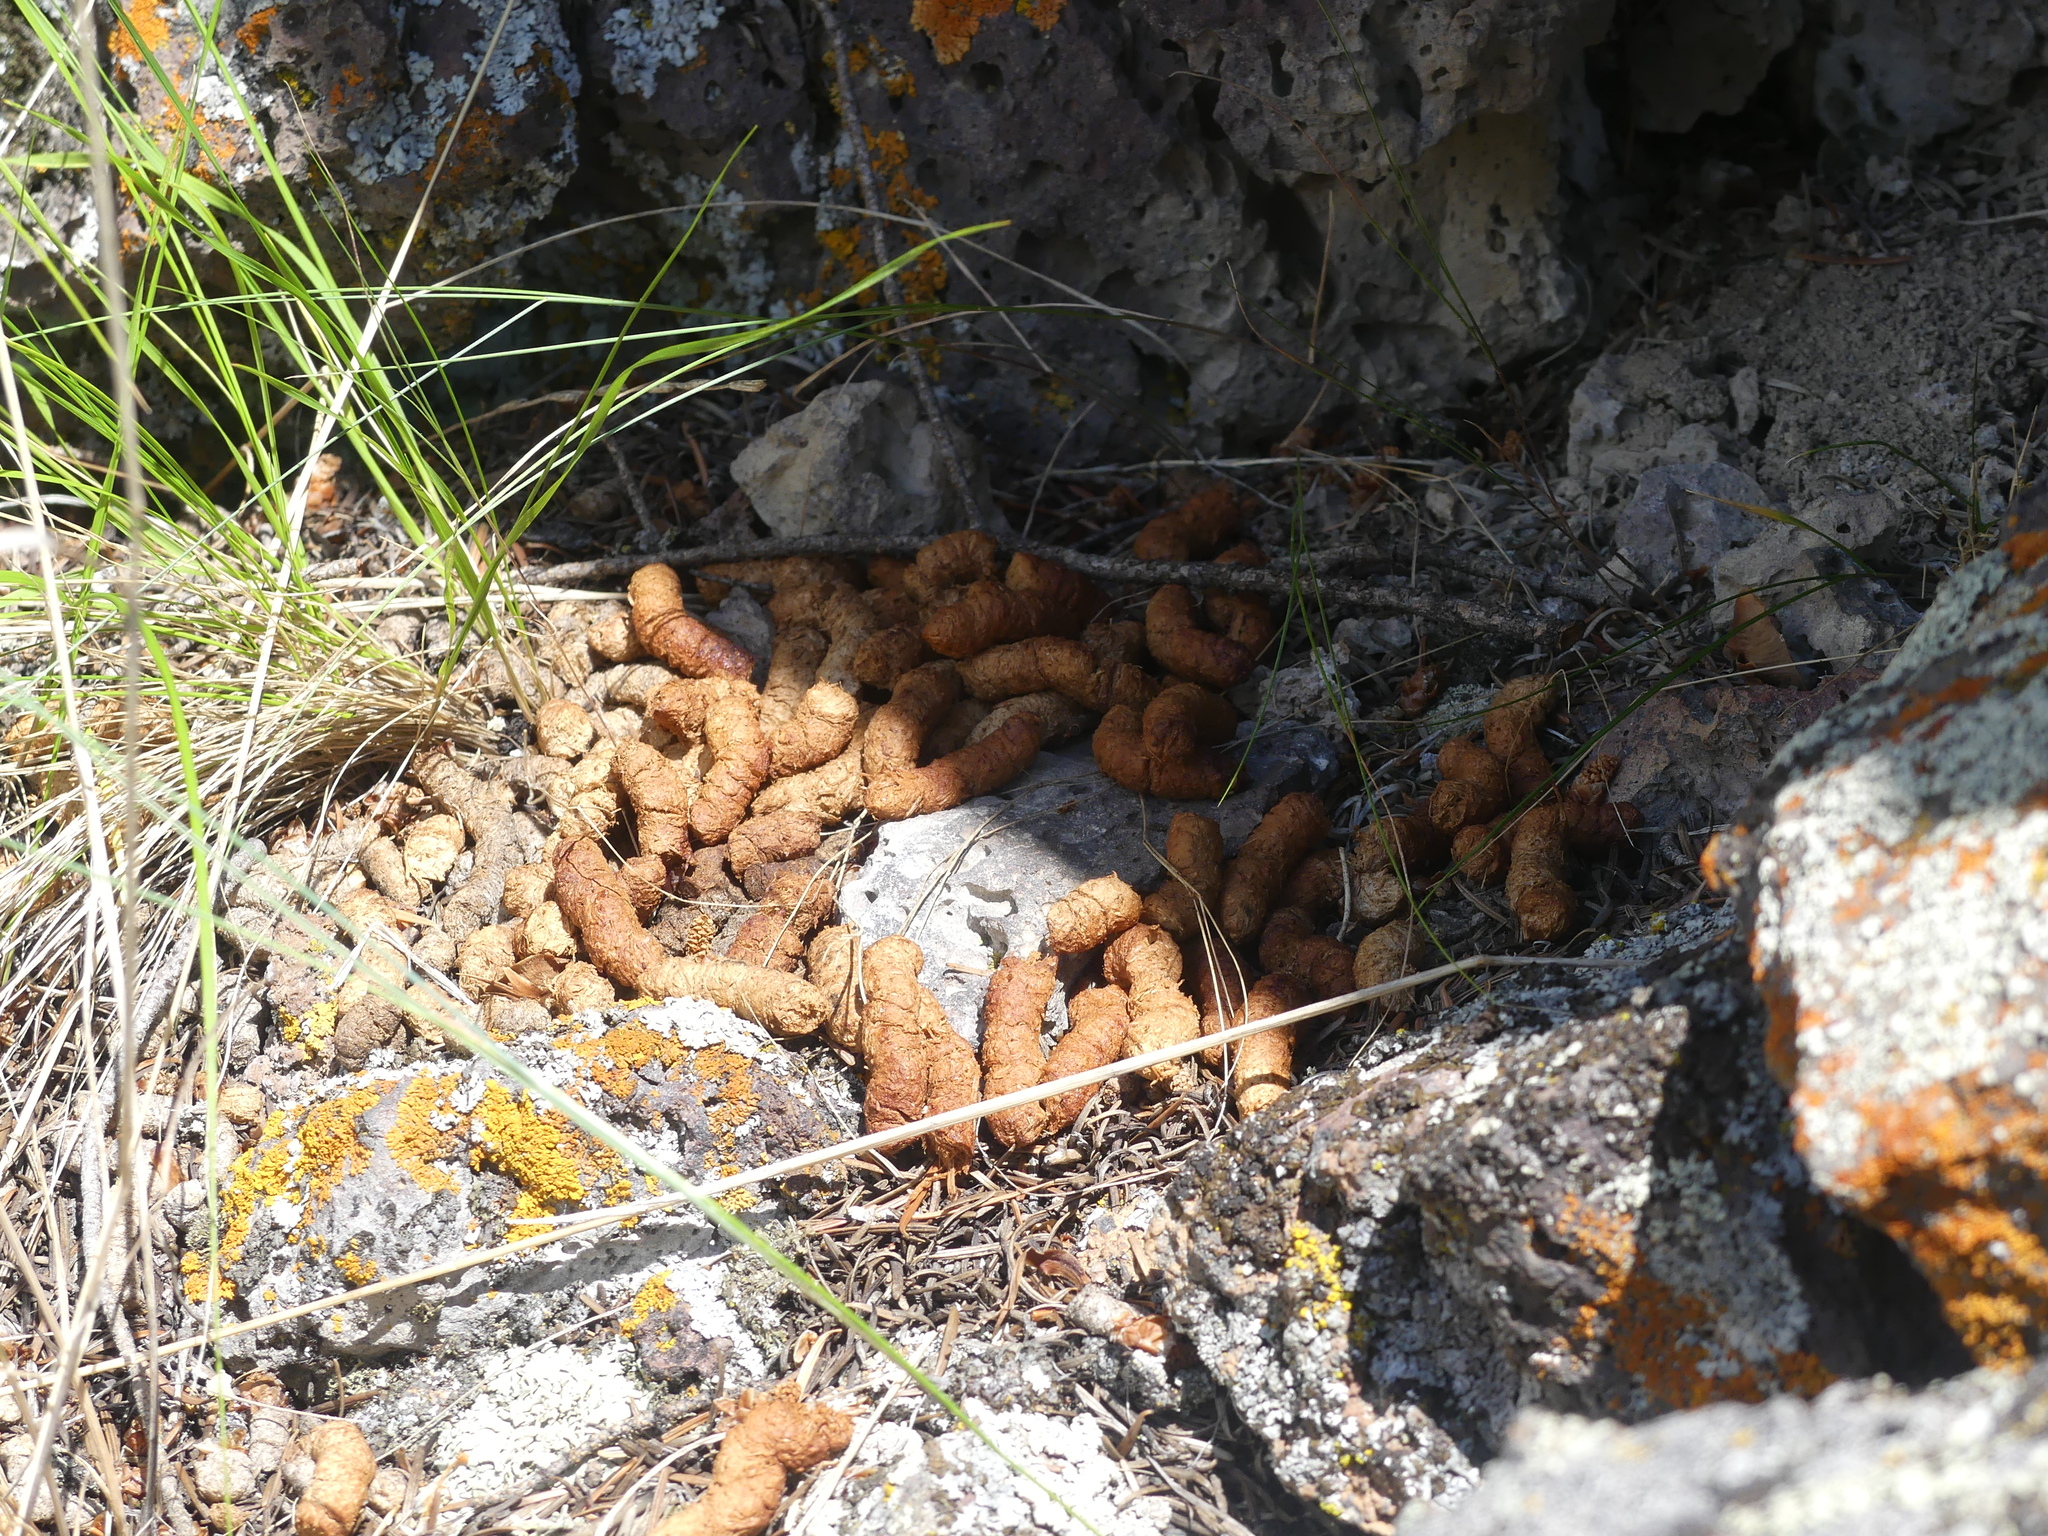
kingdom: Animalia
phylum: Chordata
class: Aves
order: Galliformes
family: Phasianidae
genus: Bonasa
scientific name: Bonasa umbellus
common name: Ruffed grouse
